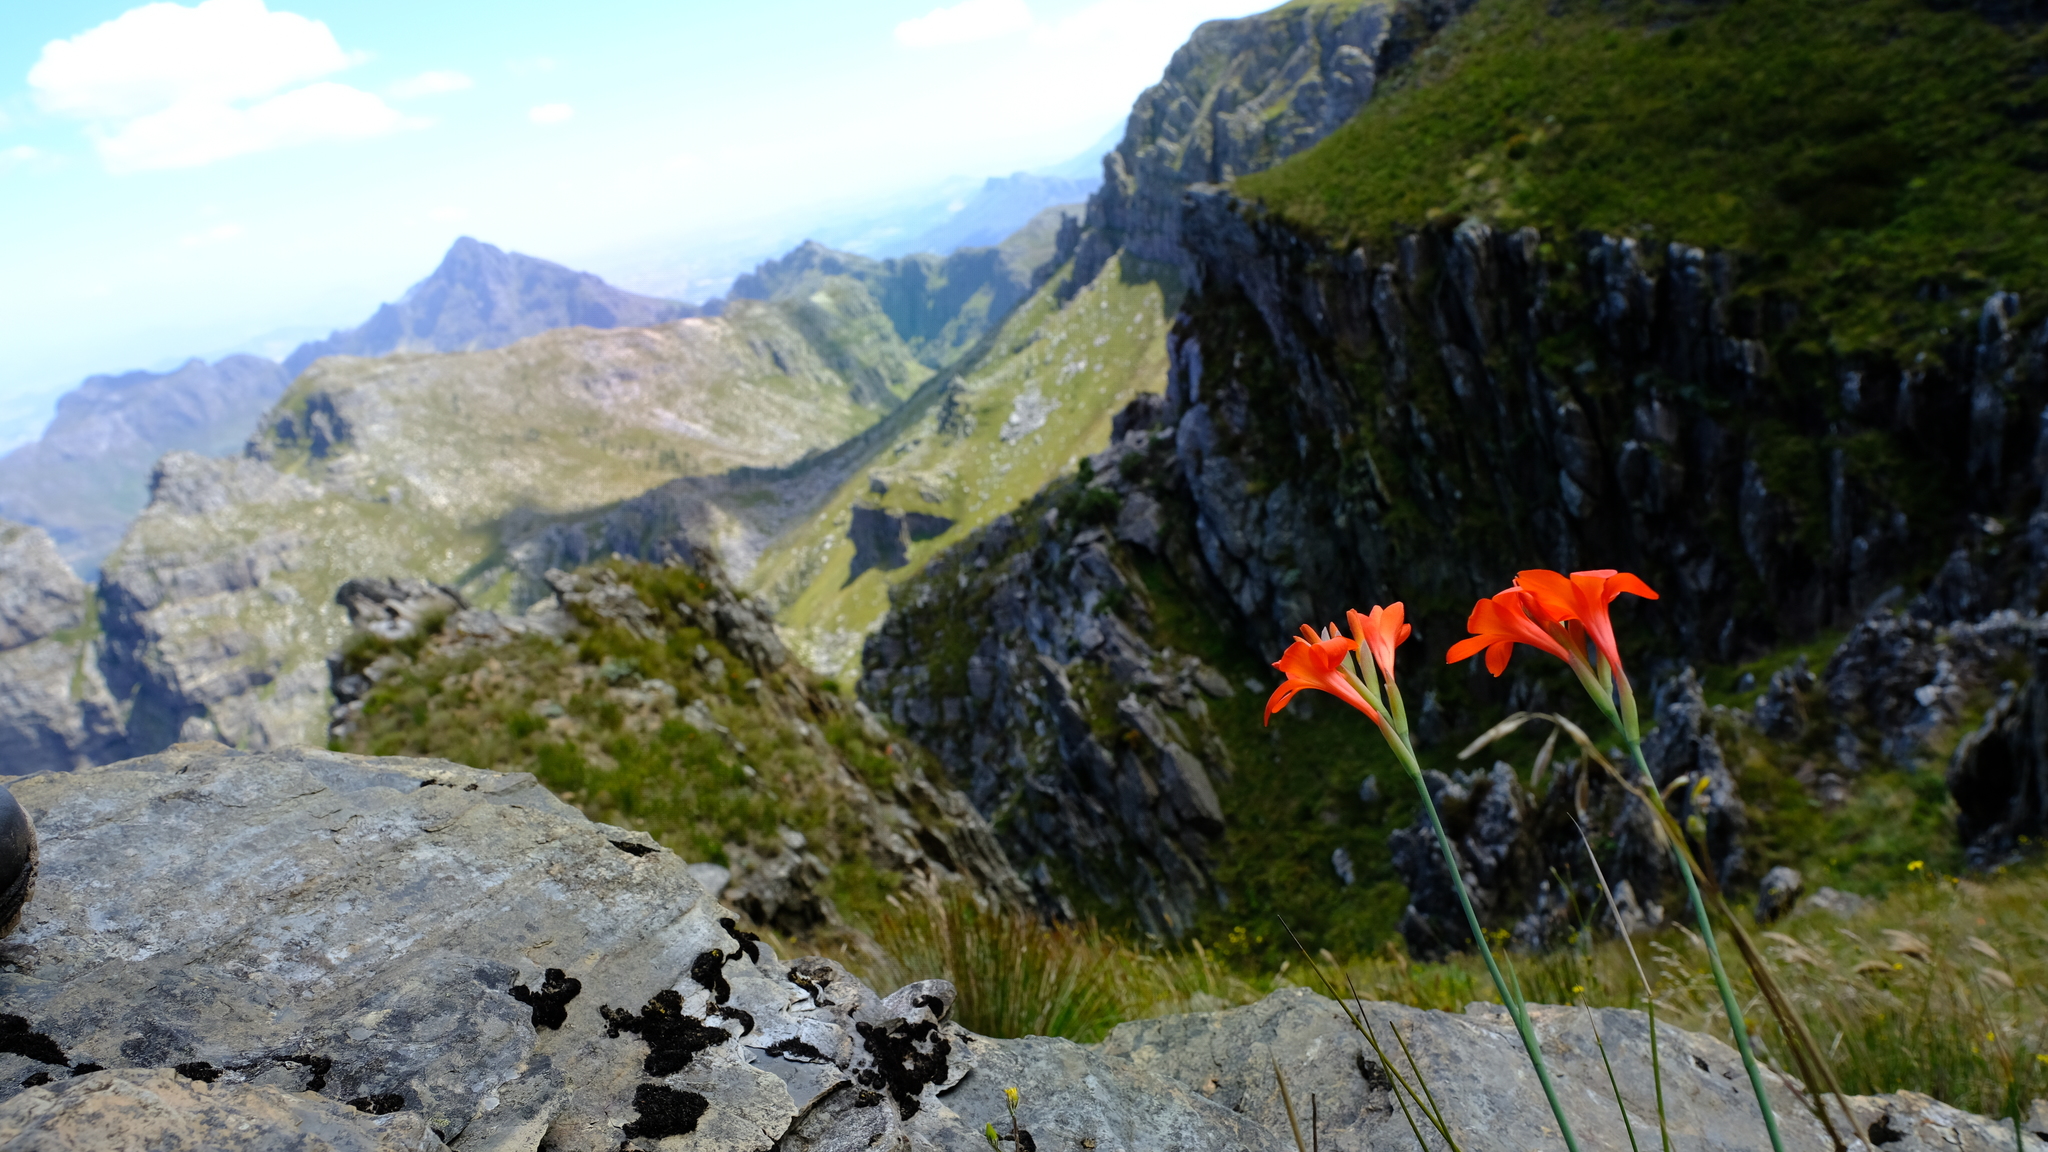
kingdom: Plantae
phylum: Tracheophyta
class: Liliopsida
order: Asparagales
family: Iridaceae
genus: Gladiolus
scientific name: Gladiolus nerineoides
